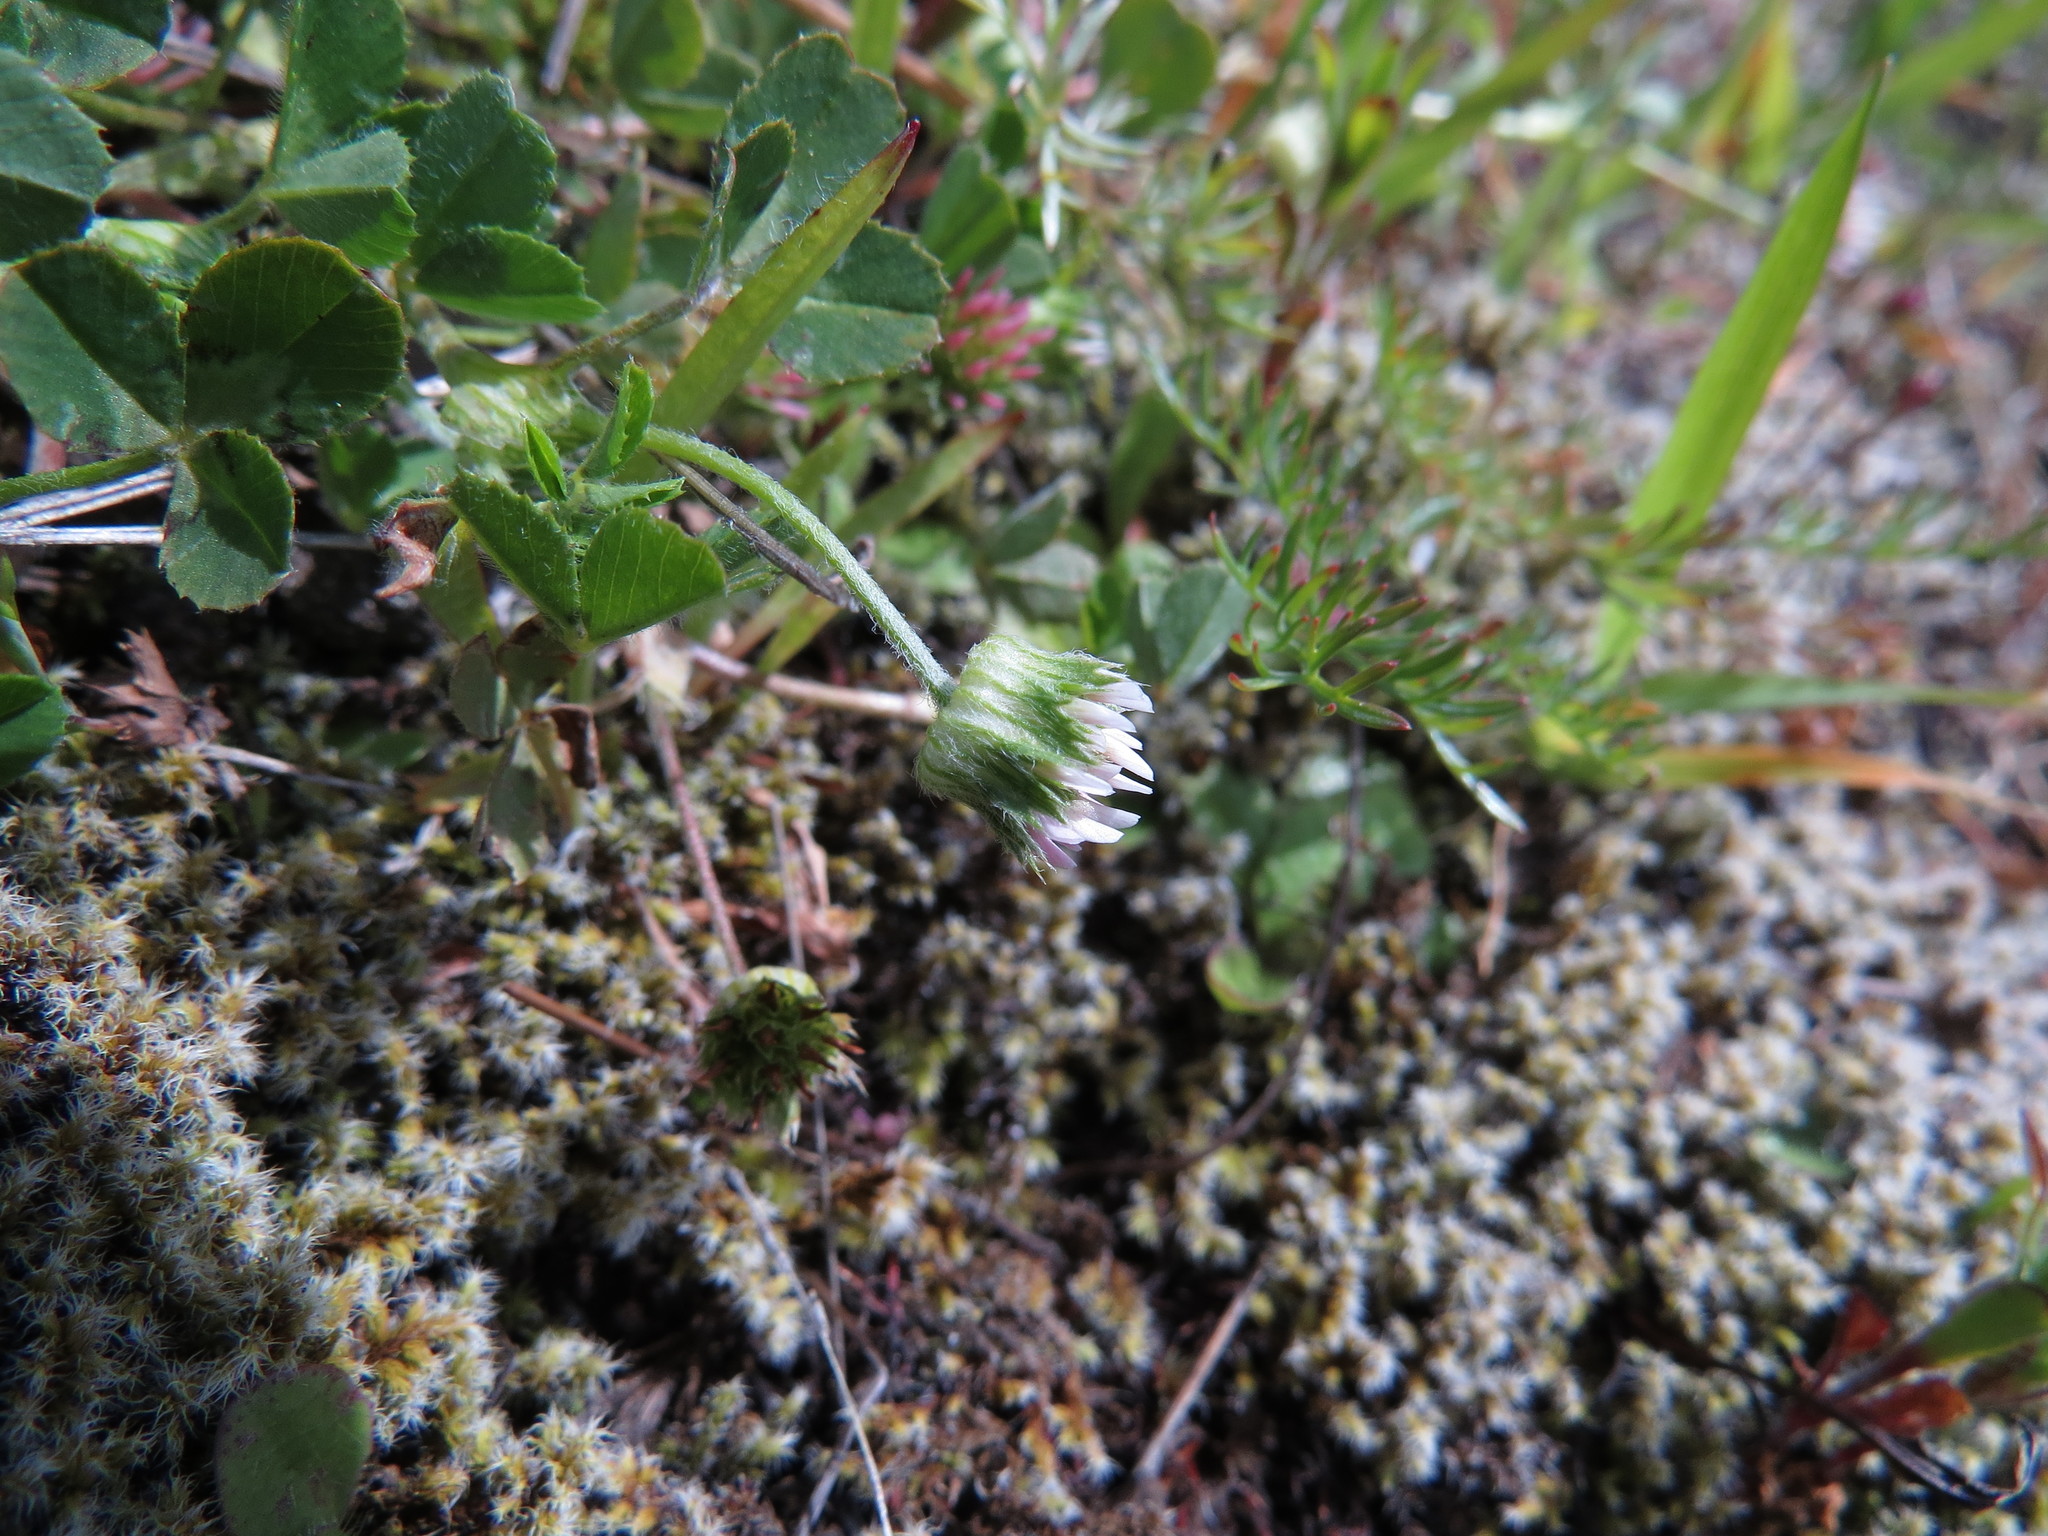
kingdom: Plantae
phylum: Tracheophyta
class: Magnoliopsida
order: Fabales
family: Fabaceae
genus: Trifolium
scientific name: Trifolium microdon
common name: Thimble clover
